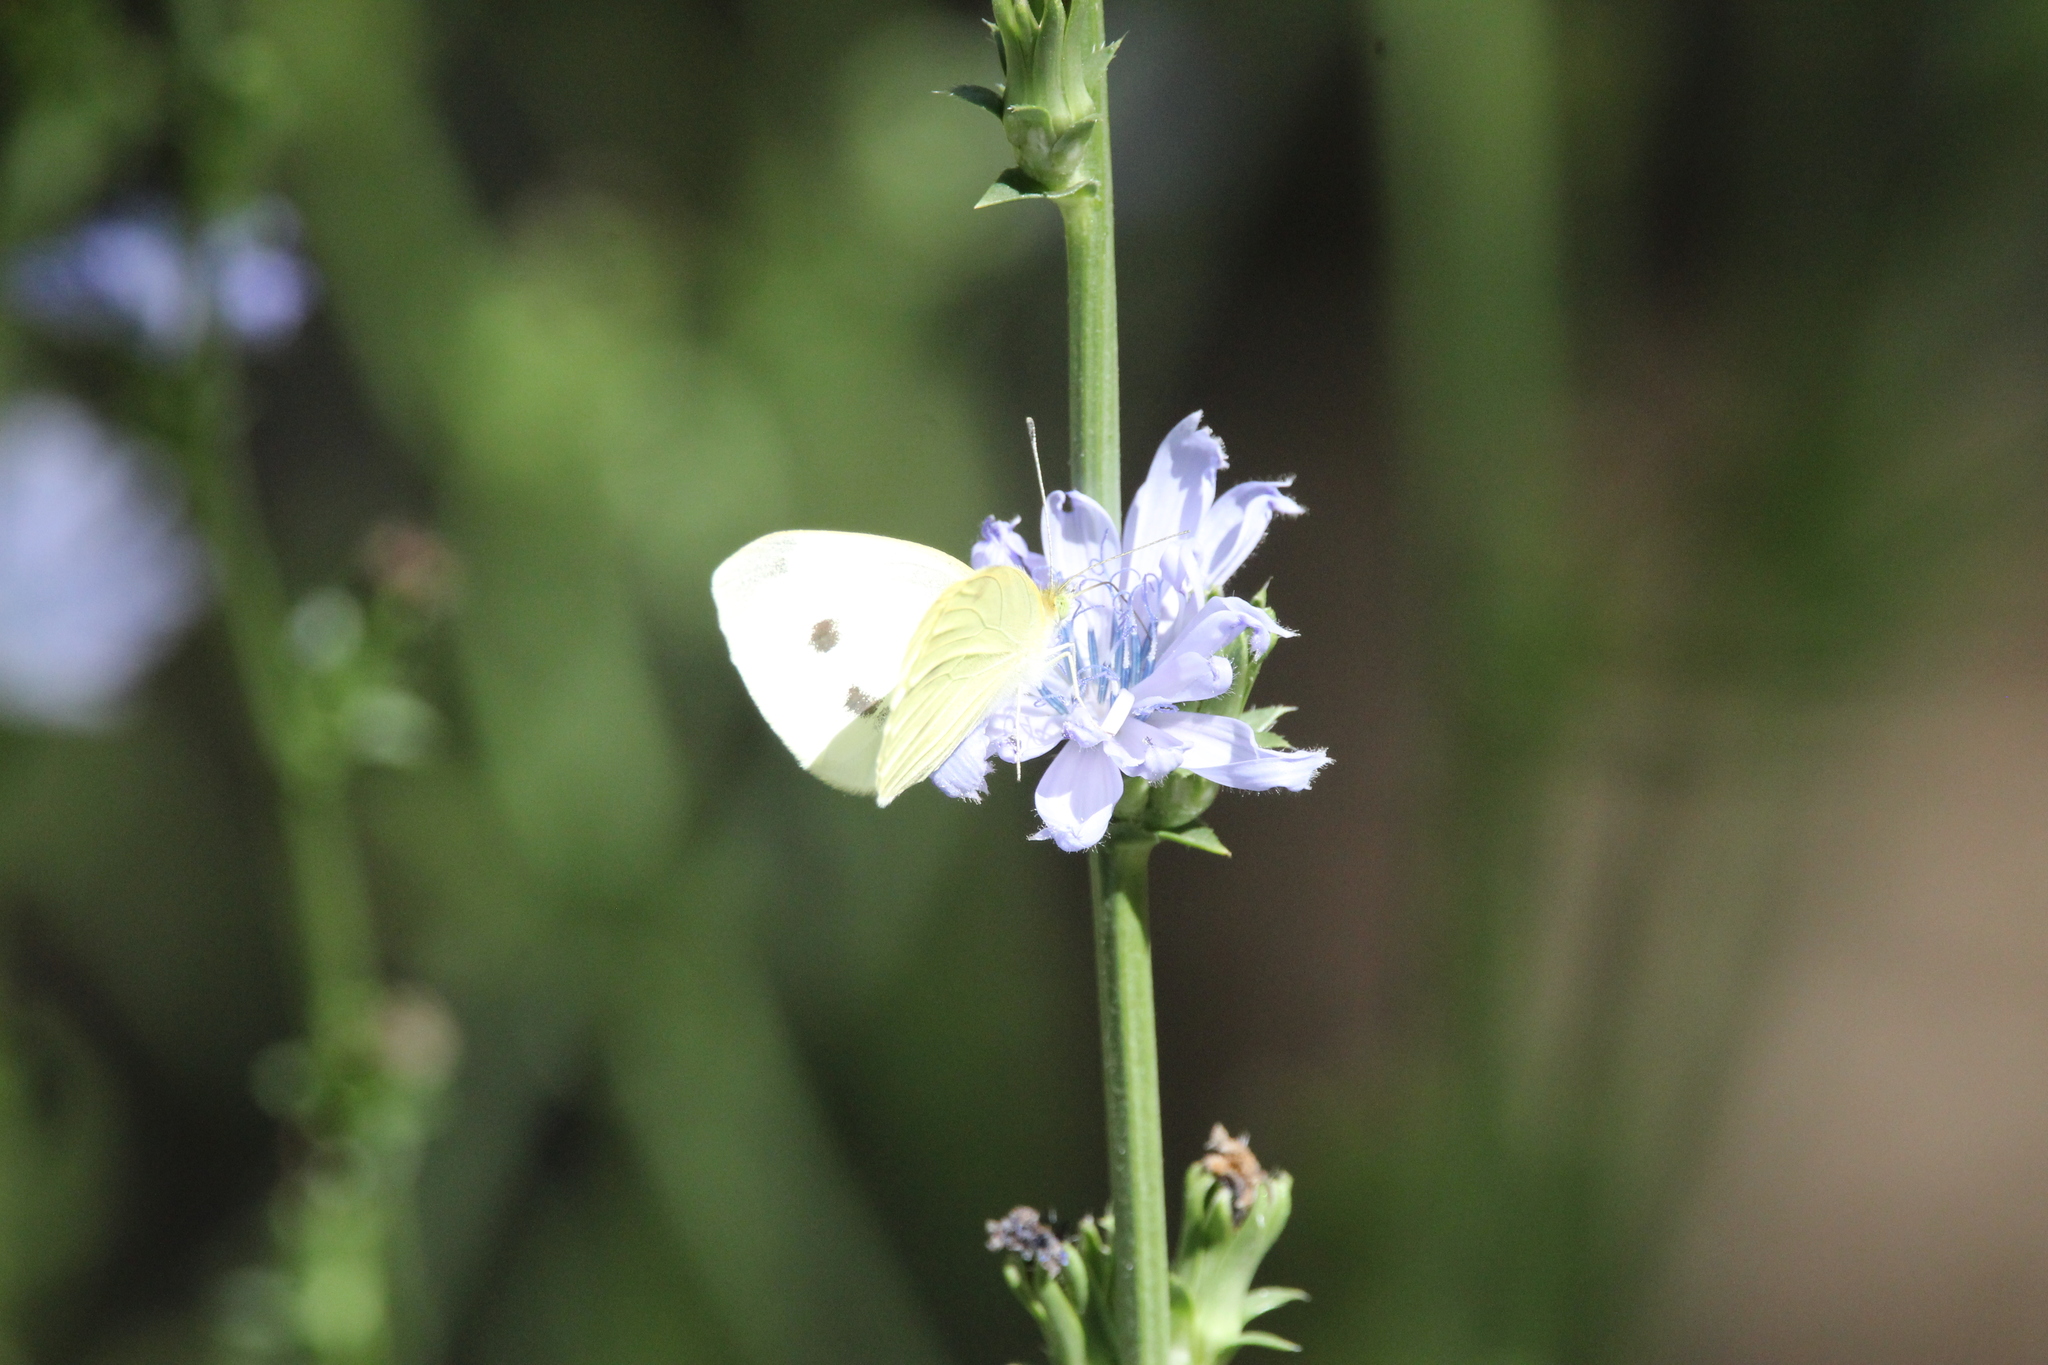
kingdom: Animalia
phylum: Arthropoda
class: Insecta
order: Lepidoptera
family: Pieridae
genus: Pieris
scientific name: Pieris rapae
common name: Small white
